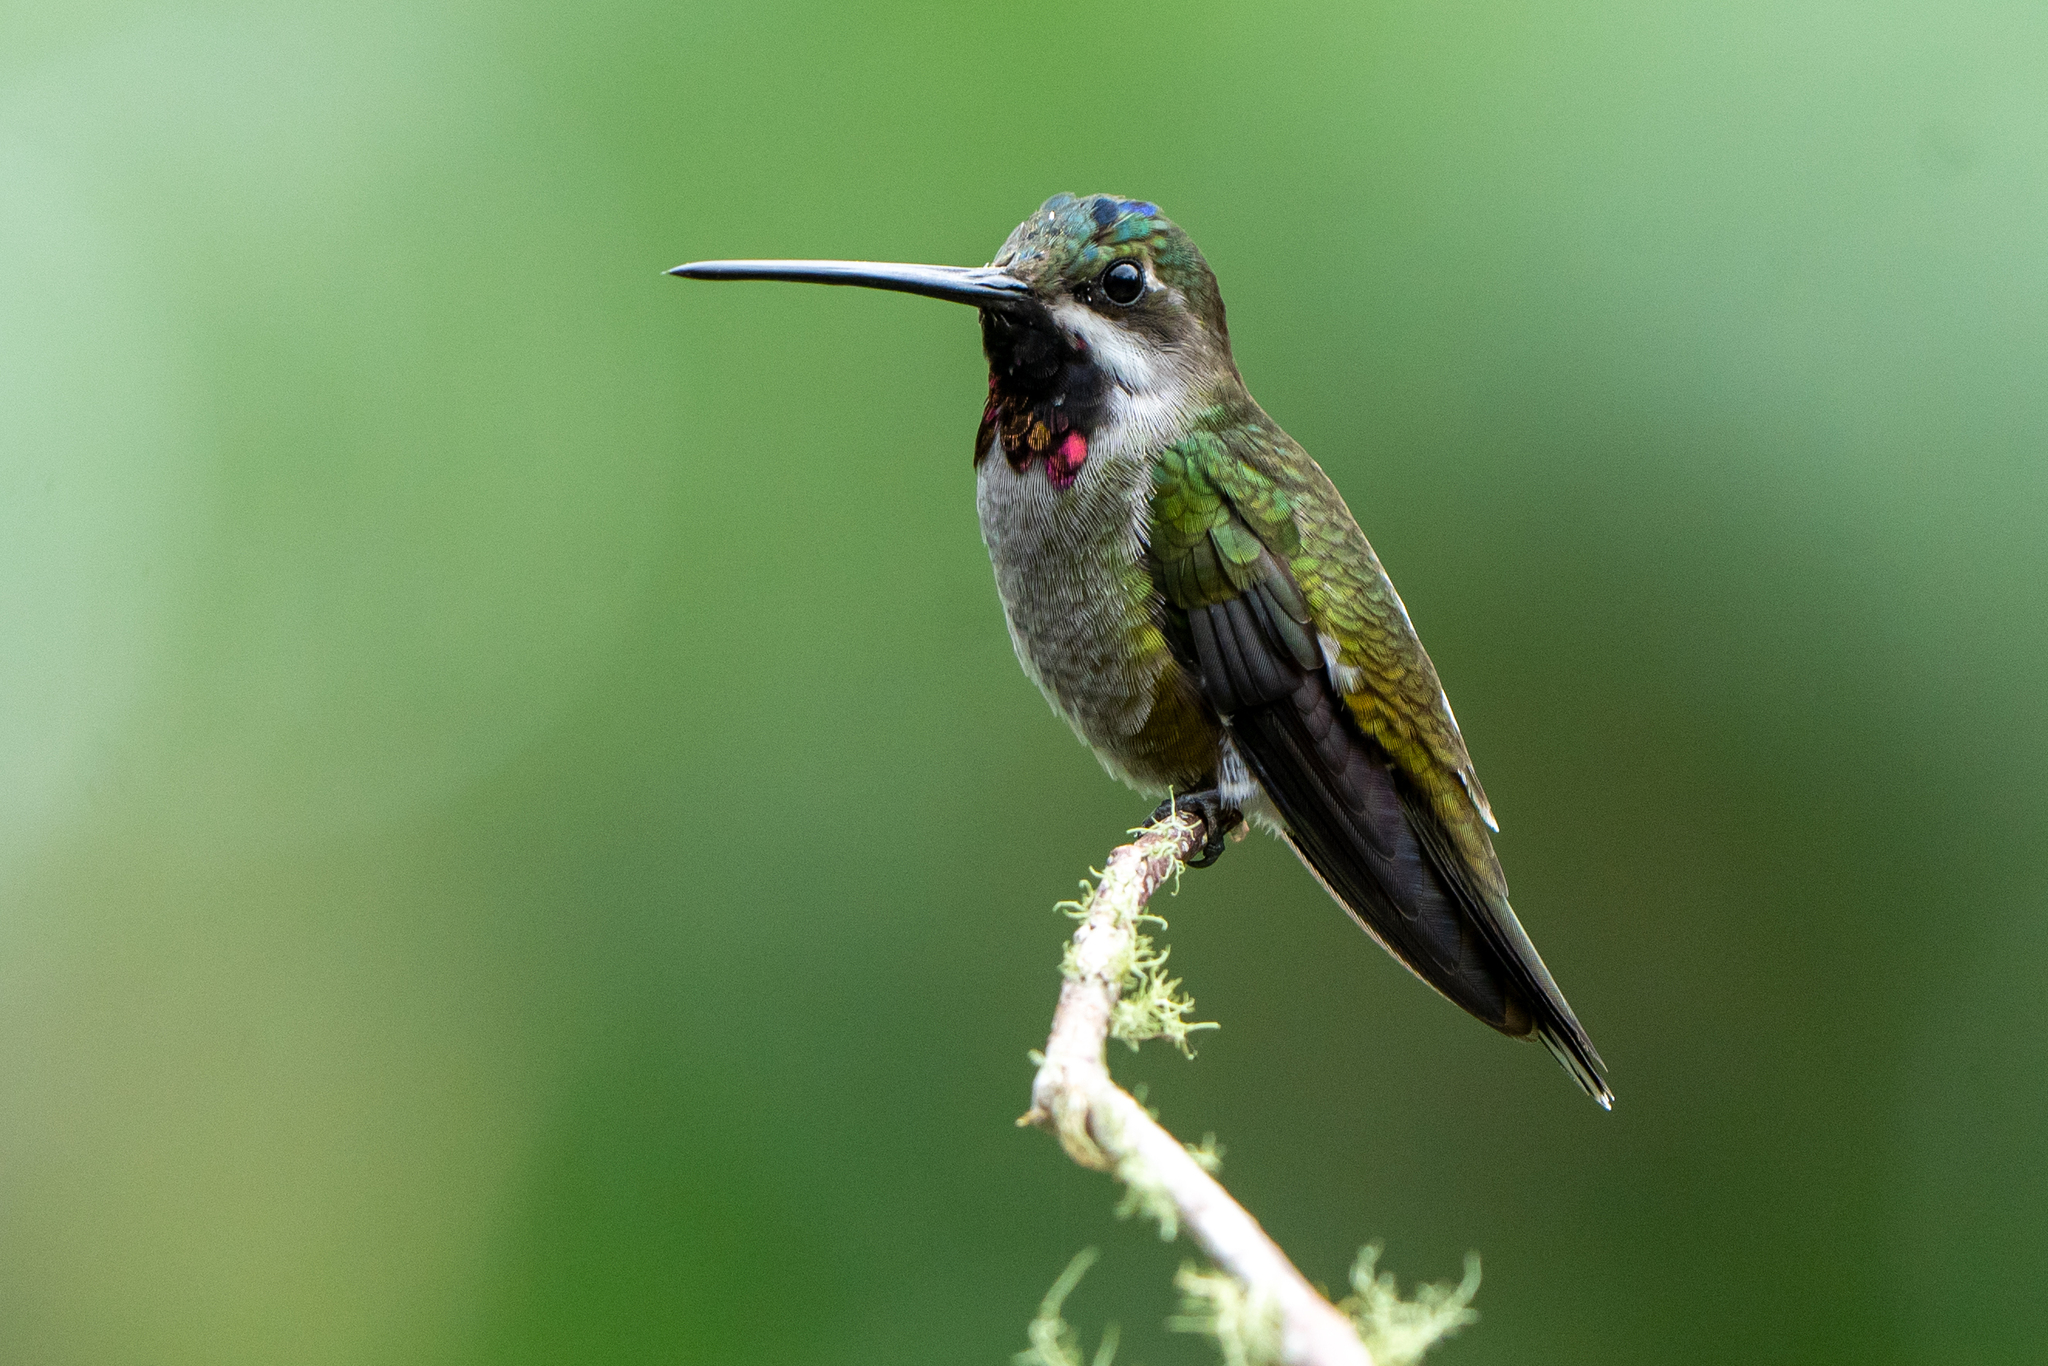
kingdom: Animalia
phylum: Chordata
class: Aves
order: Apodiformes
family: Trochilidae
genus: Heliomaster
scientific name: Heliomaster longirostris
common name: Long-billed starthroat
